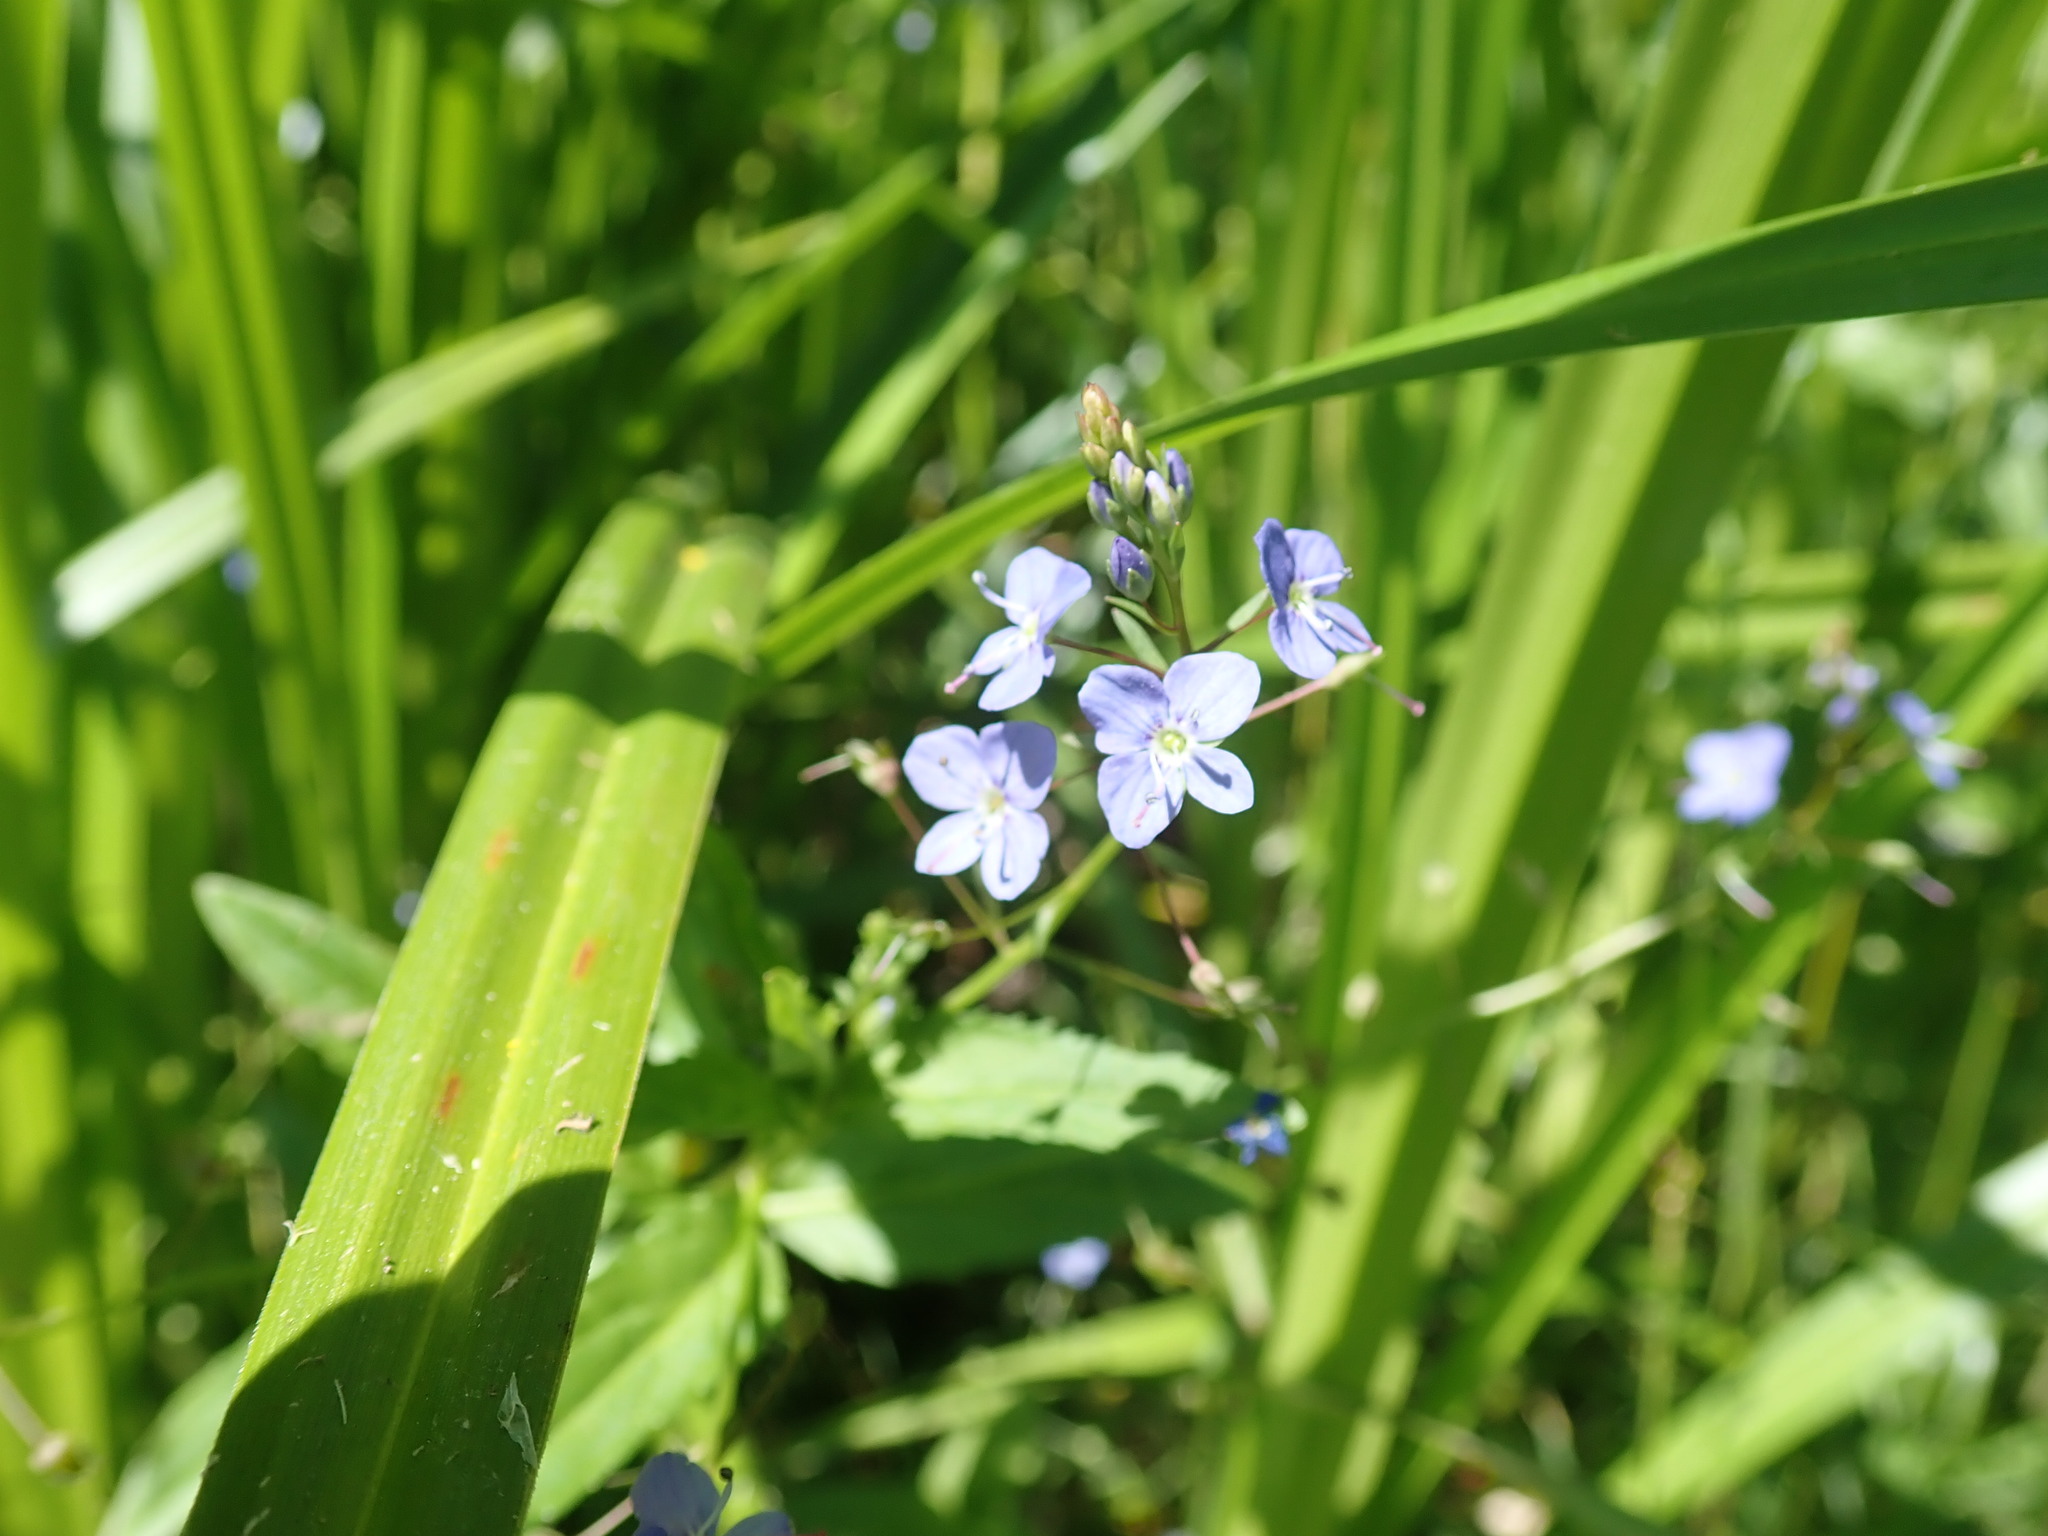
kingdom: Plantae
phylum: Tracheophyta
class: Magnoliopsida
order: Lamiales
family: Plantaginaceae
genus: Veronica
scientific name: Veronica americana
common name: American brooklime
